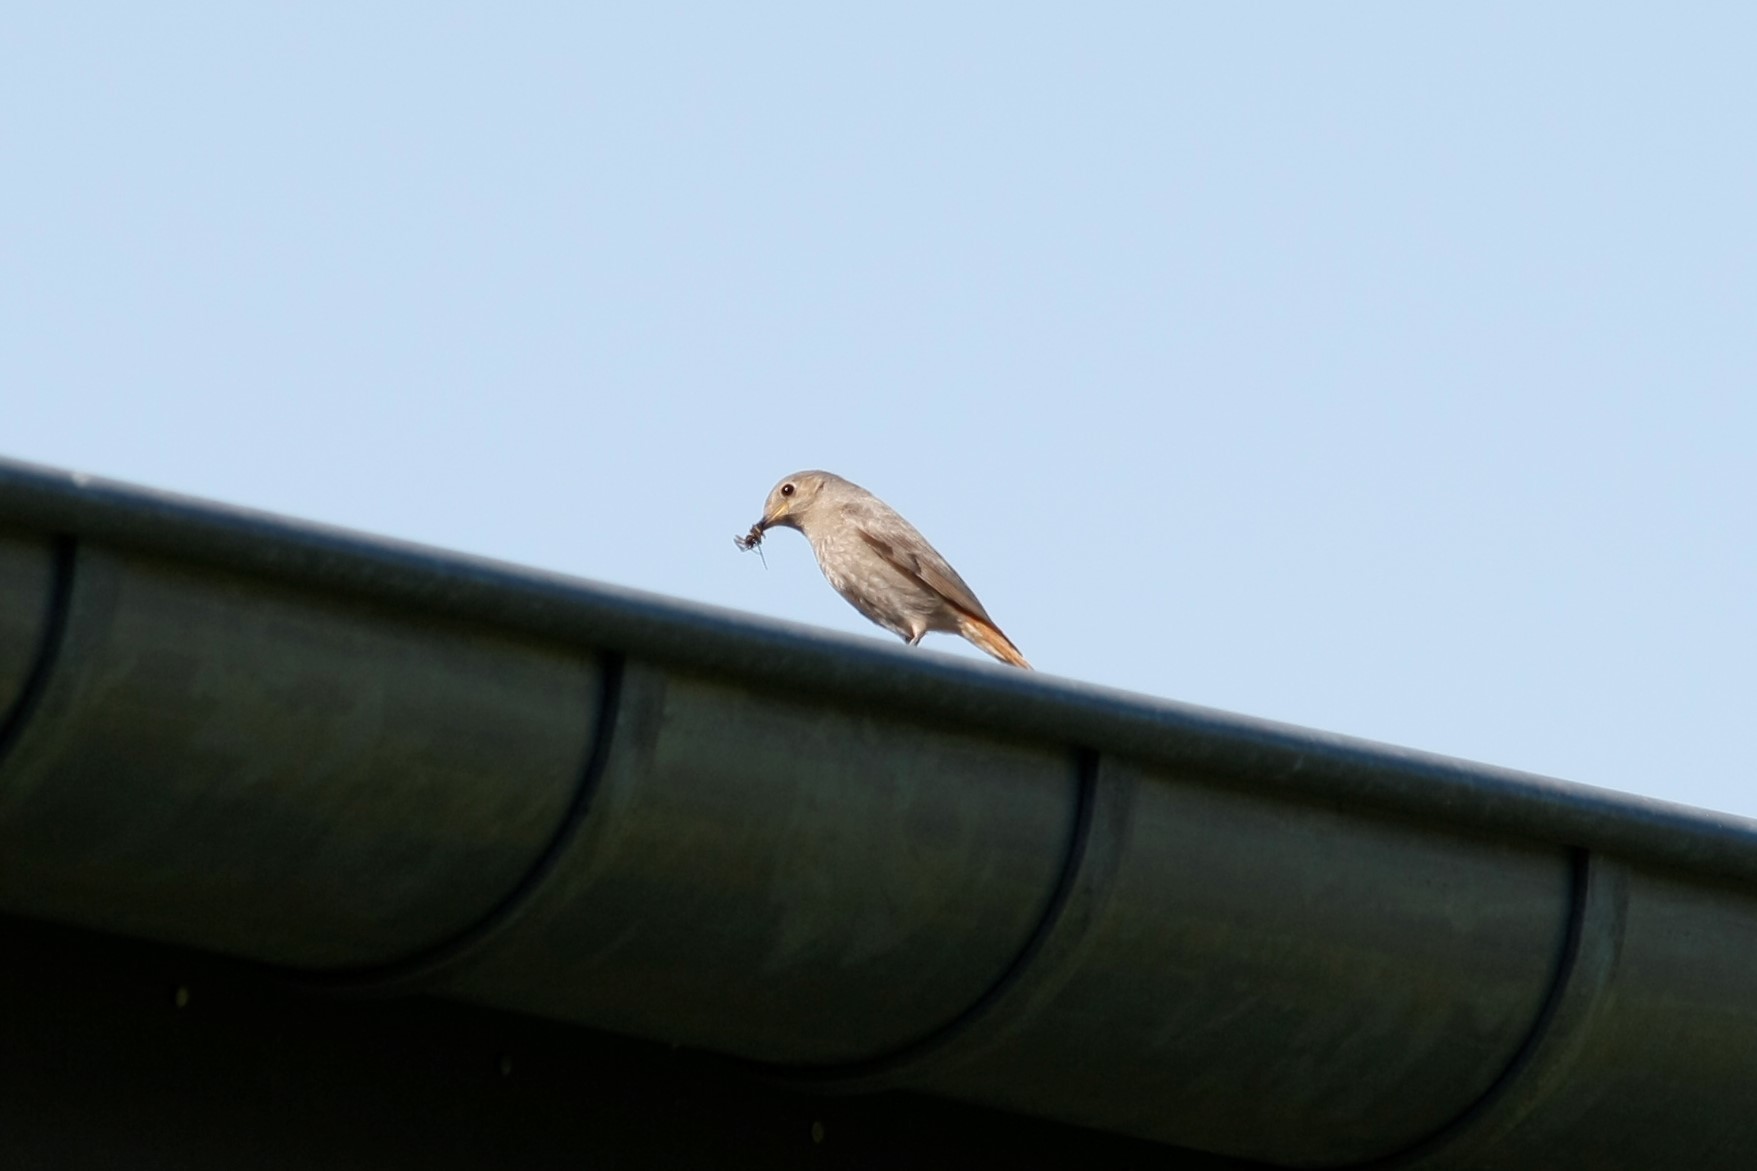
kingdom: Animalia
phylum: Chordata
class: Aves
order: Passeriformes
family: Muscicapidae
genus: Phoenicurus
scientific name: Phoenicurus ochruros
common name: Black redstart
